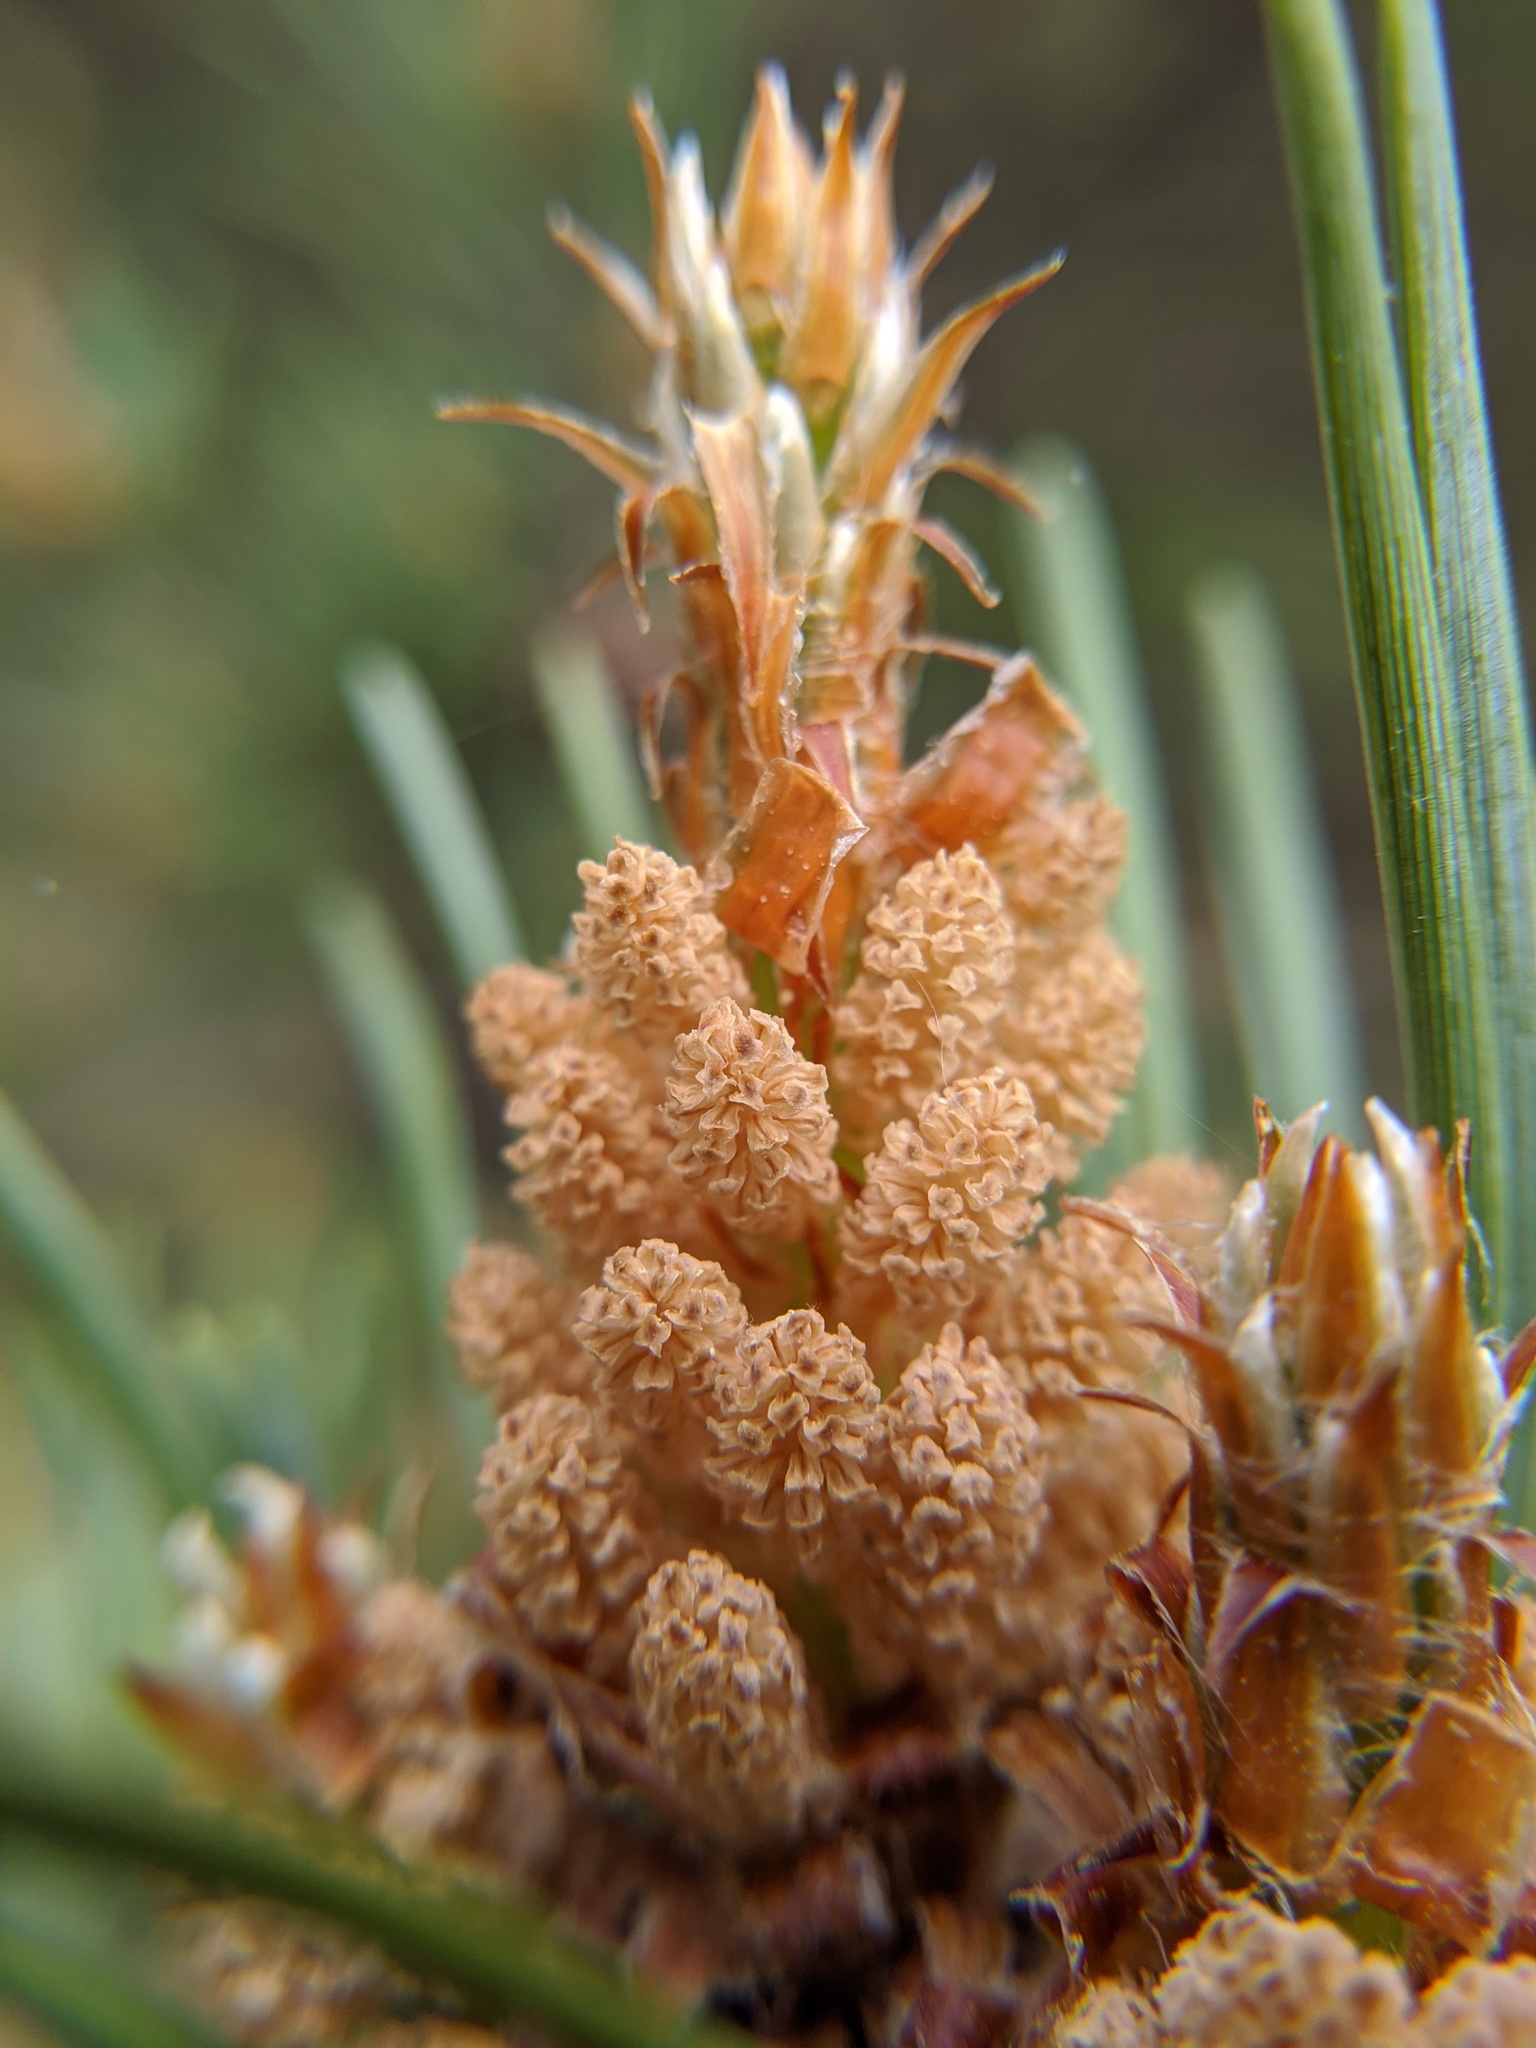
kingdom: Plantae
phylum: Tracheophyta
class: Pinopsida
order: Pinales
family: Pinaceae
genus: Pinus
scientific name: Pinus sylvestris
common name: Scots pine
